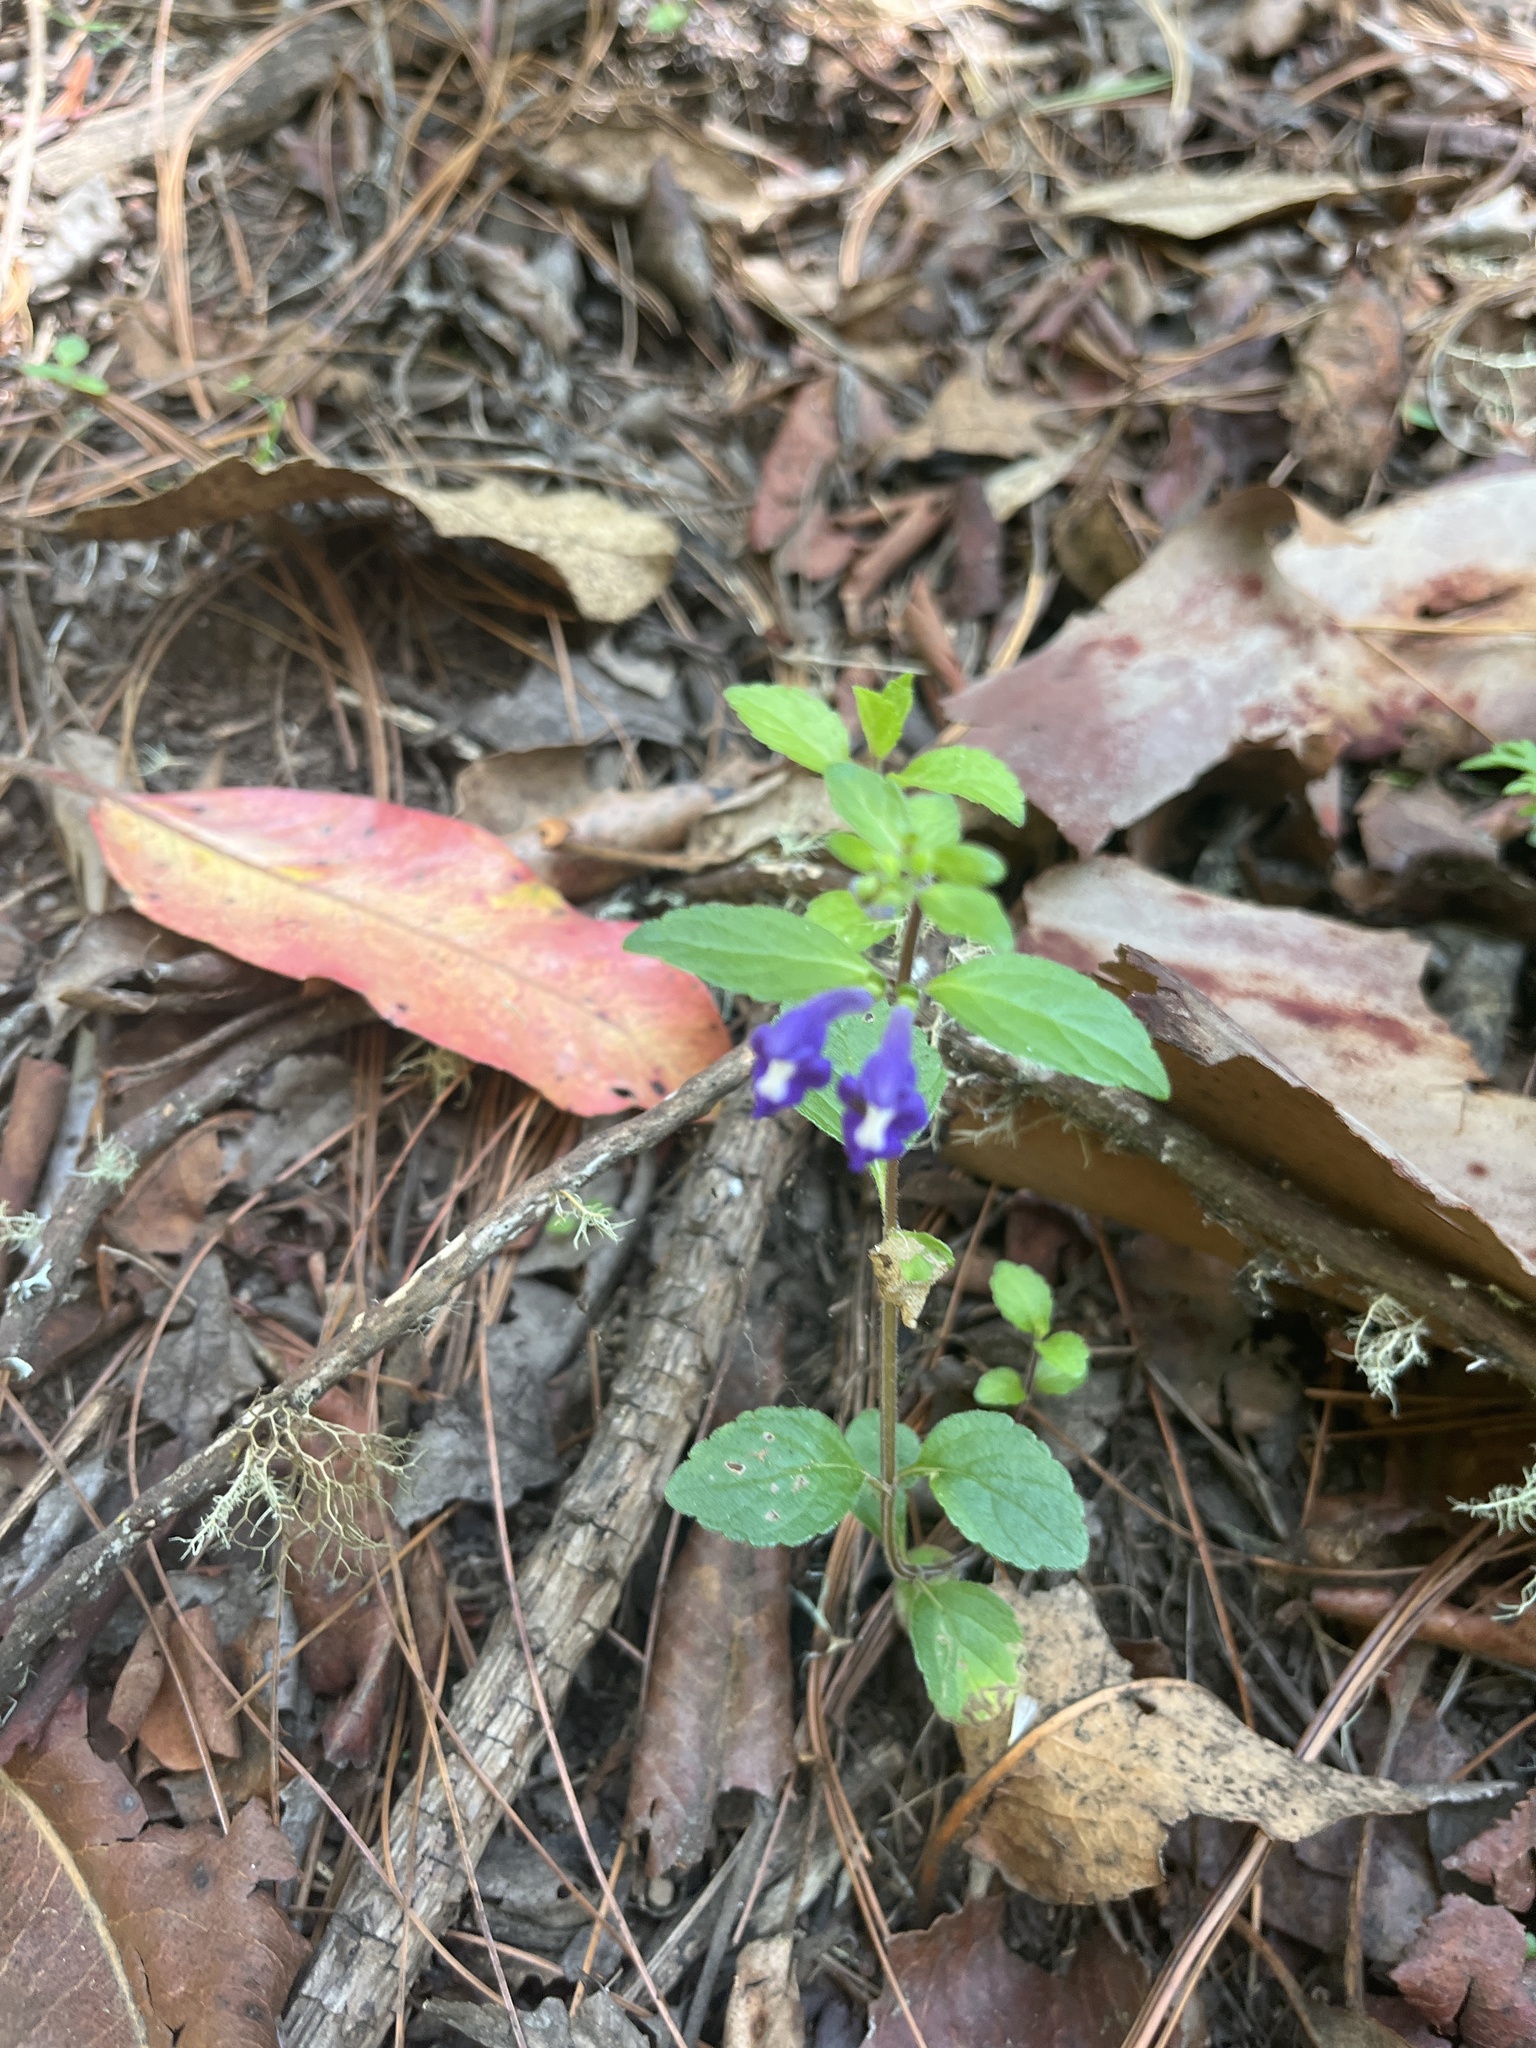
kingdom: Plantae
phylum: Tracheophyta
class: Magnoliopsida
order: Lamiales
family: Lamiaceae
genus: Scutellaria
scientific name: Scutellaria dumetorum
